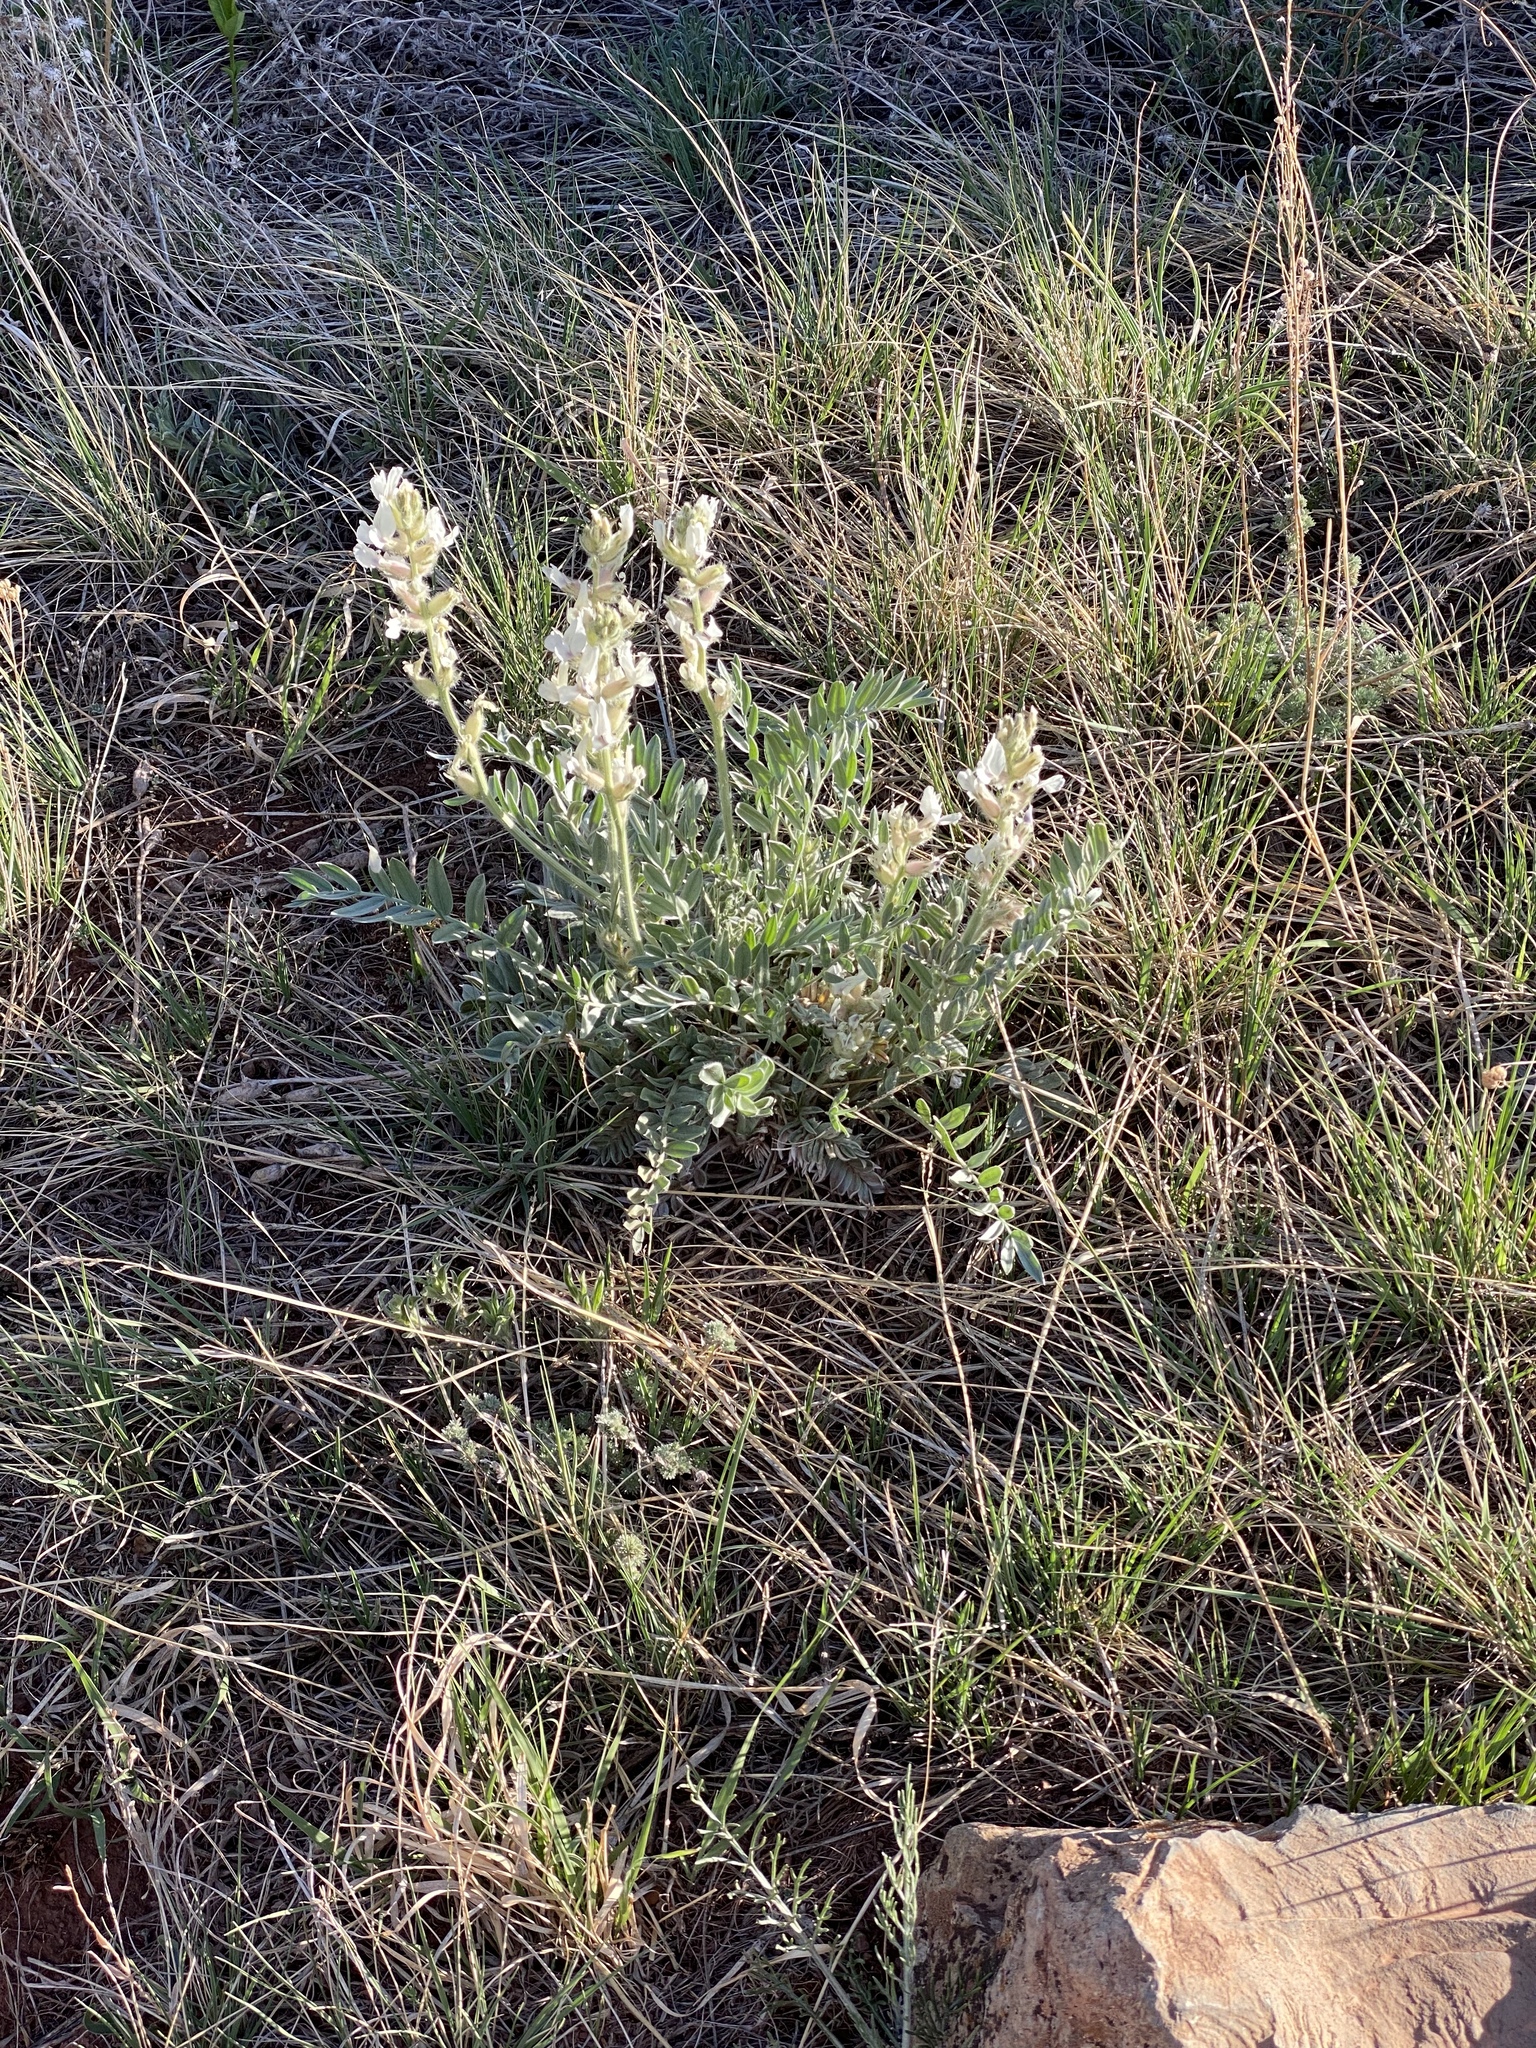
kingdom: Plantae
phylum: Tracheophyta
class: Magnoliopsida
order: Fabales
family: Fabaceae
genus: Oxytropis
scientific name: Oxytropis sericea
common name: Silky locoweed
